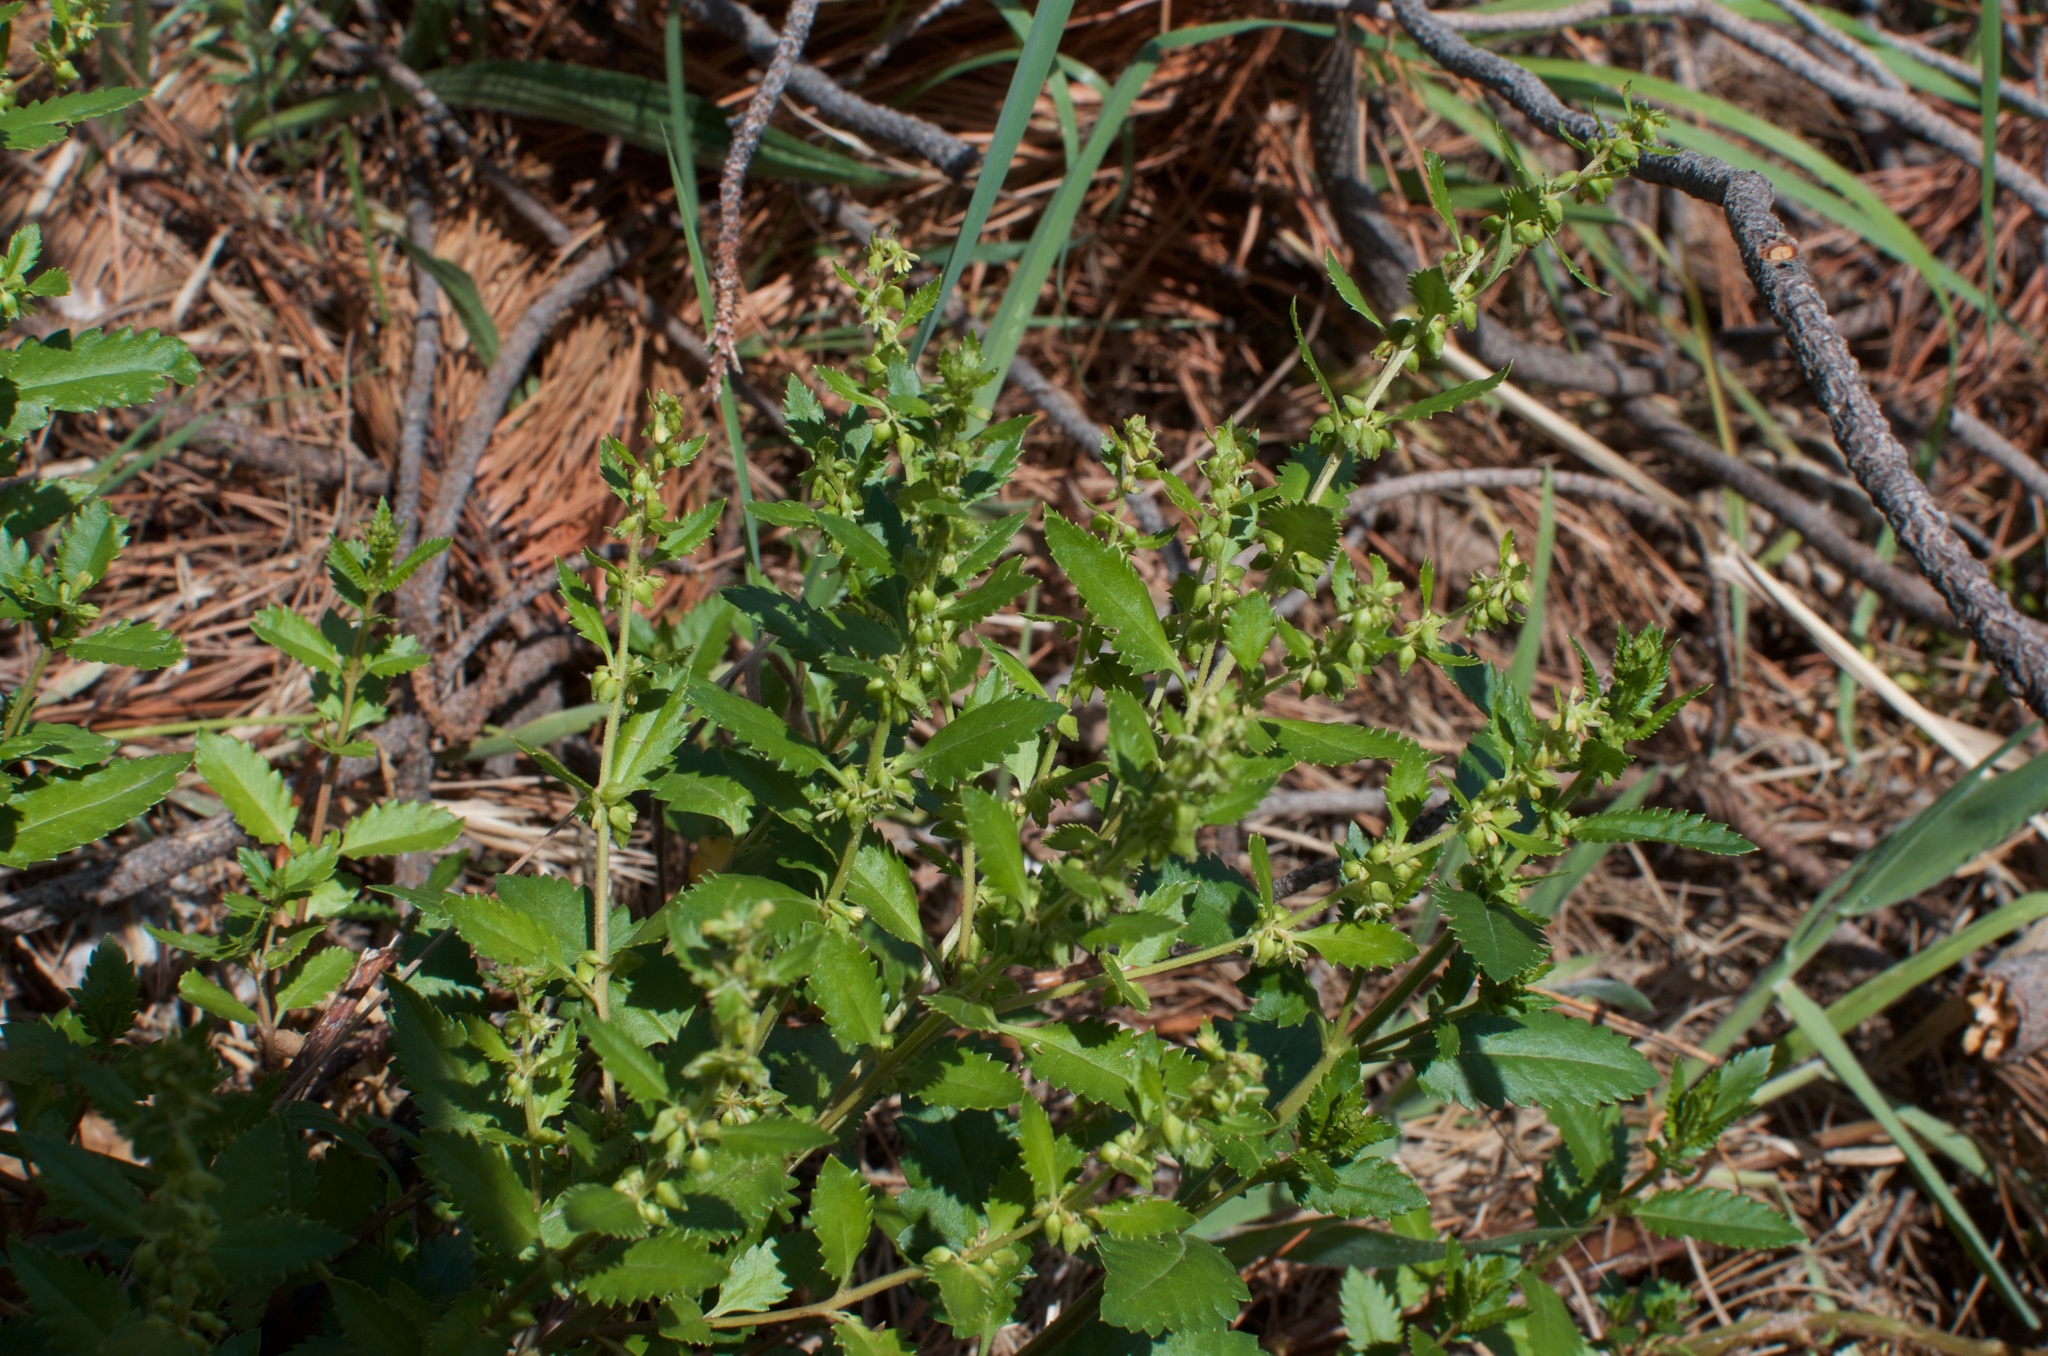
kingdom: Plantae
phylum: Tracheophyta
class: Magnoliopsida
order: Saxifragales
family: Haloragaceae
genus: Haloragis
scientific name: Haloragis erecta
